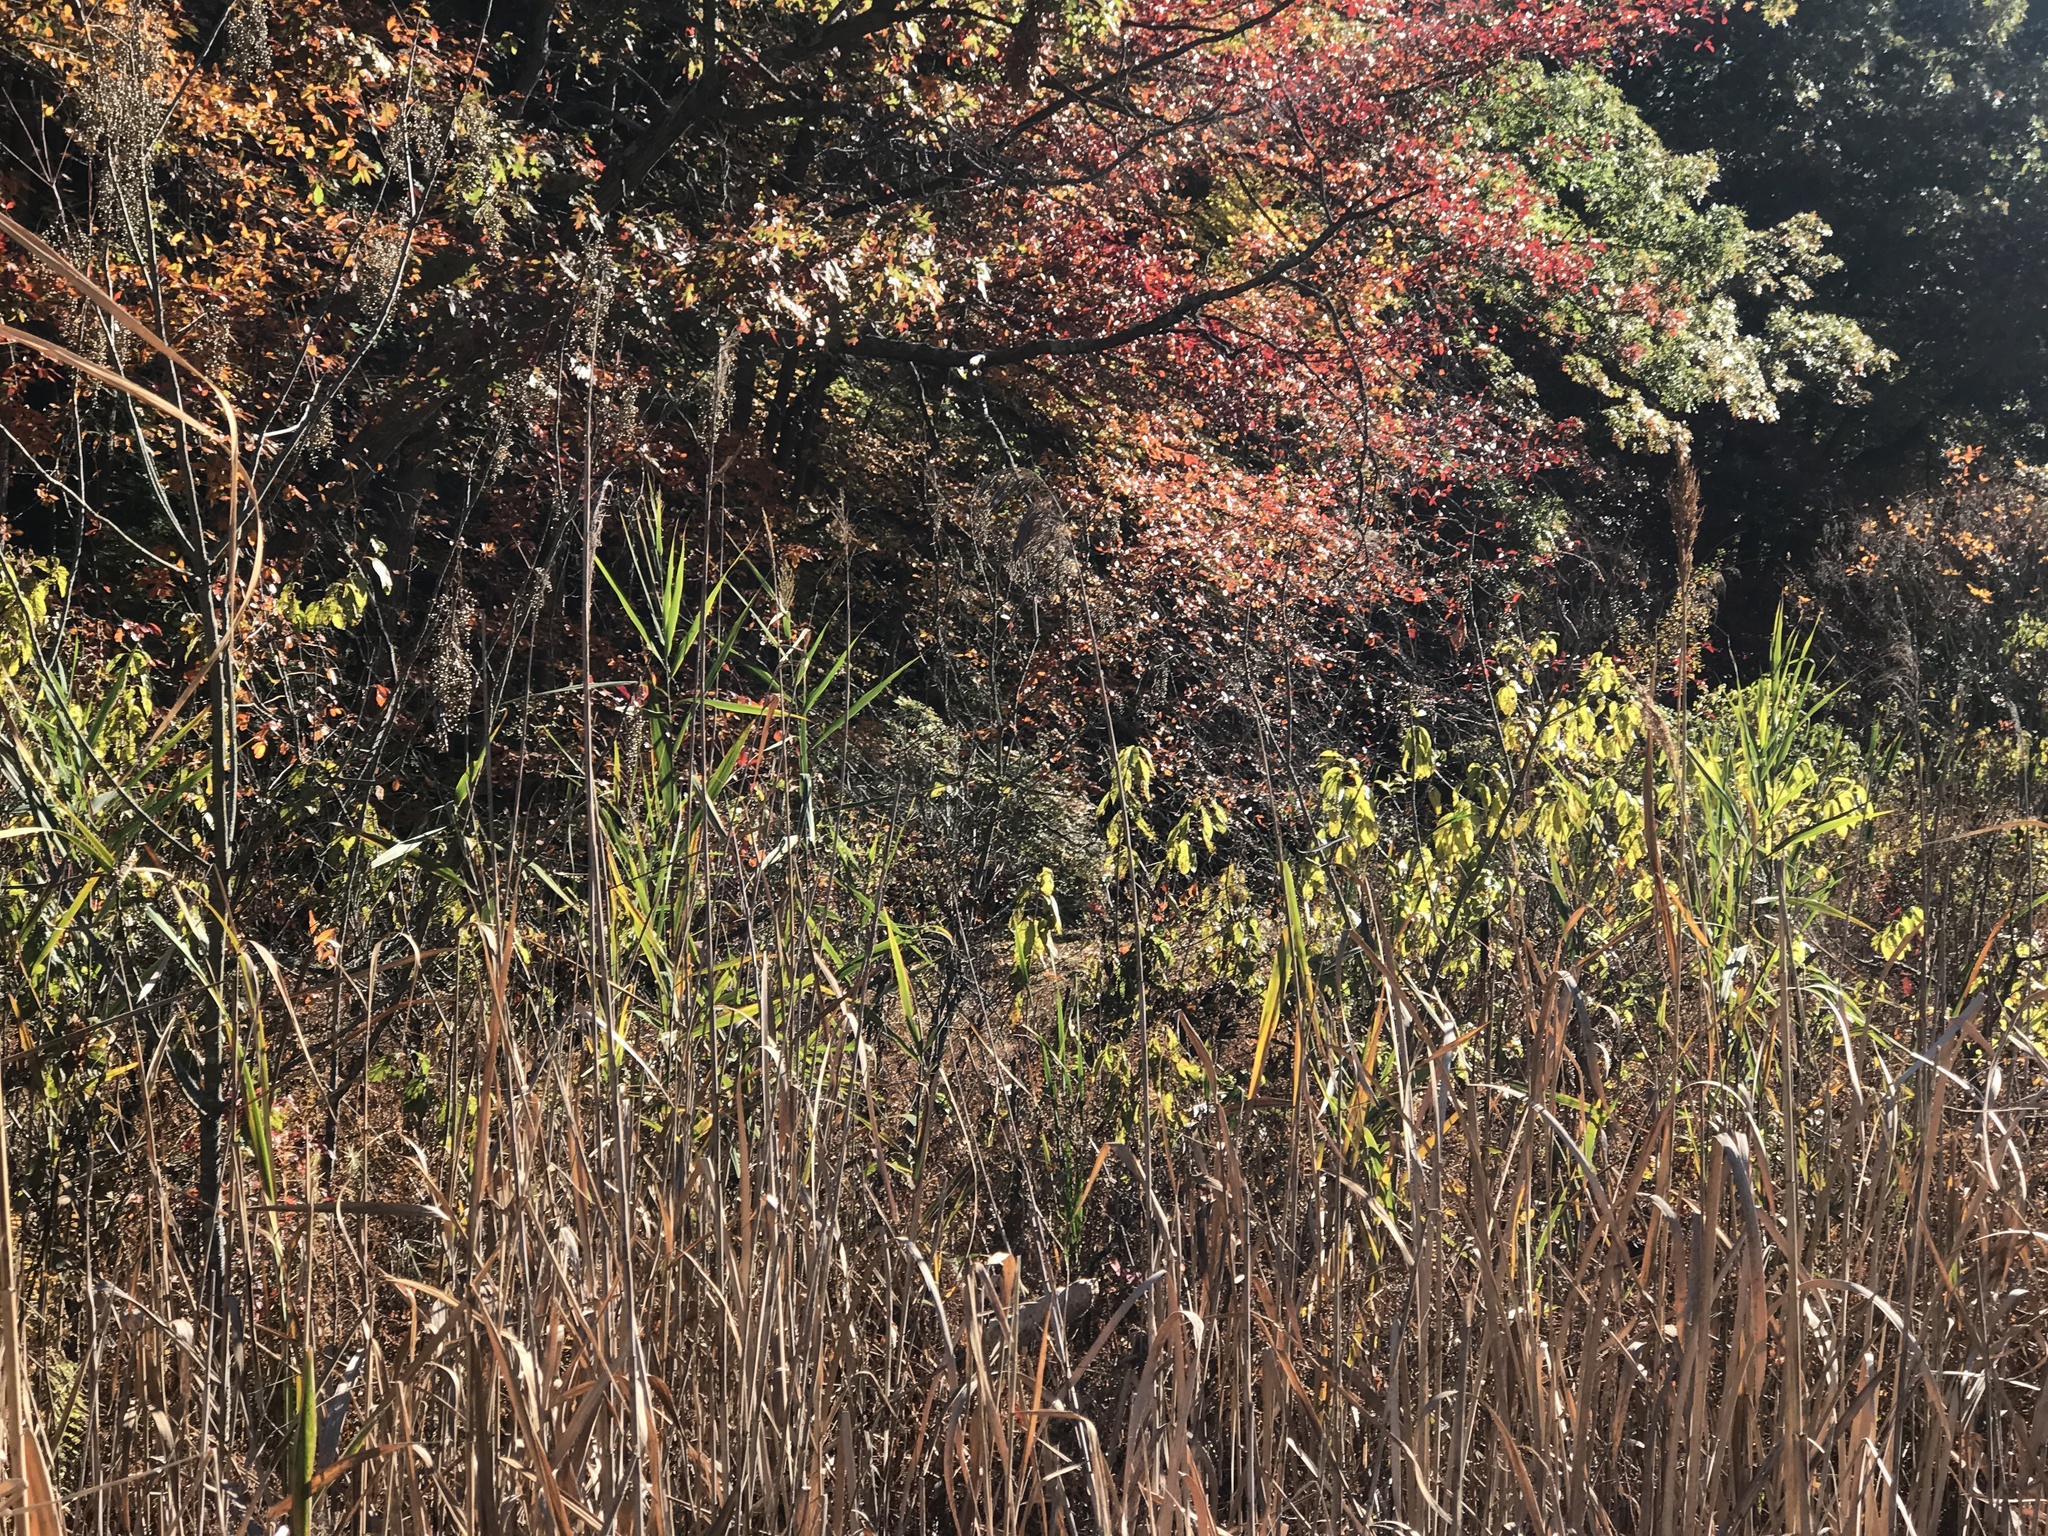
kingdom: Plantae
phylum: Tracheophyta
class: Liliopsida
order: Poales
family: Poaceae
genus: Phragmites
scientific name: Phragmites australis
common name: Common reed
